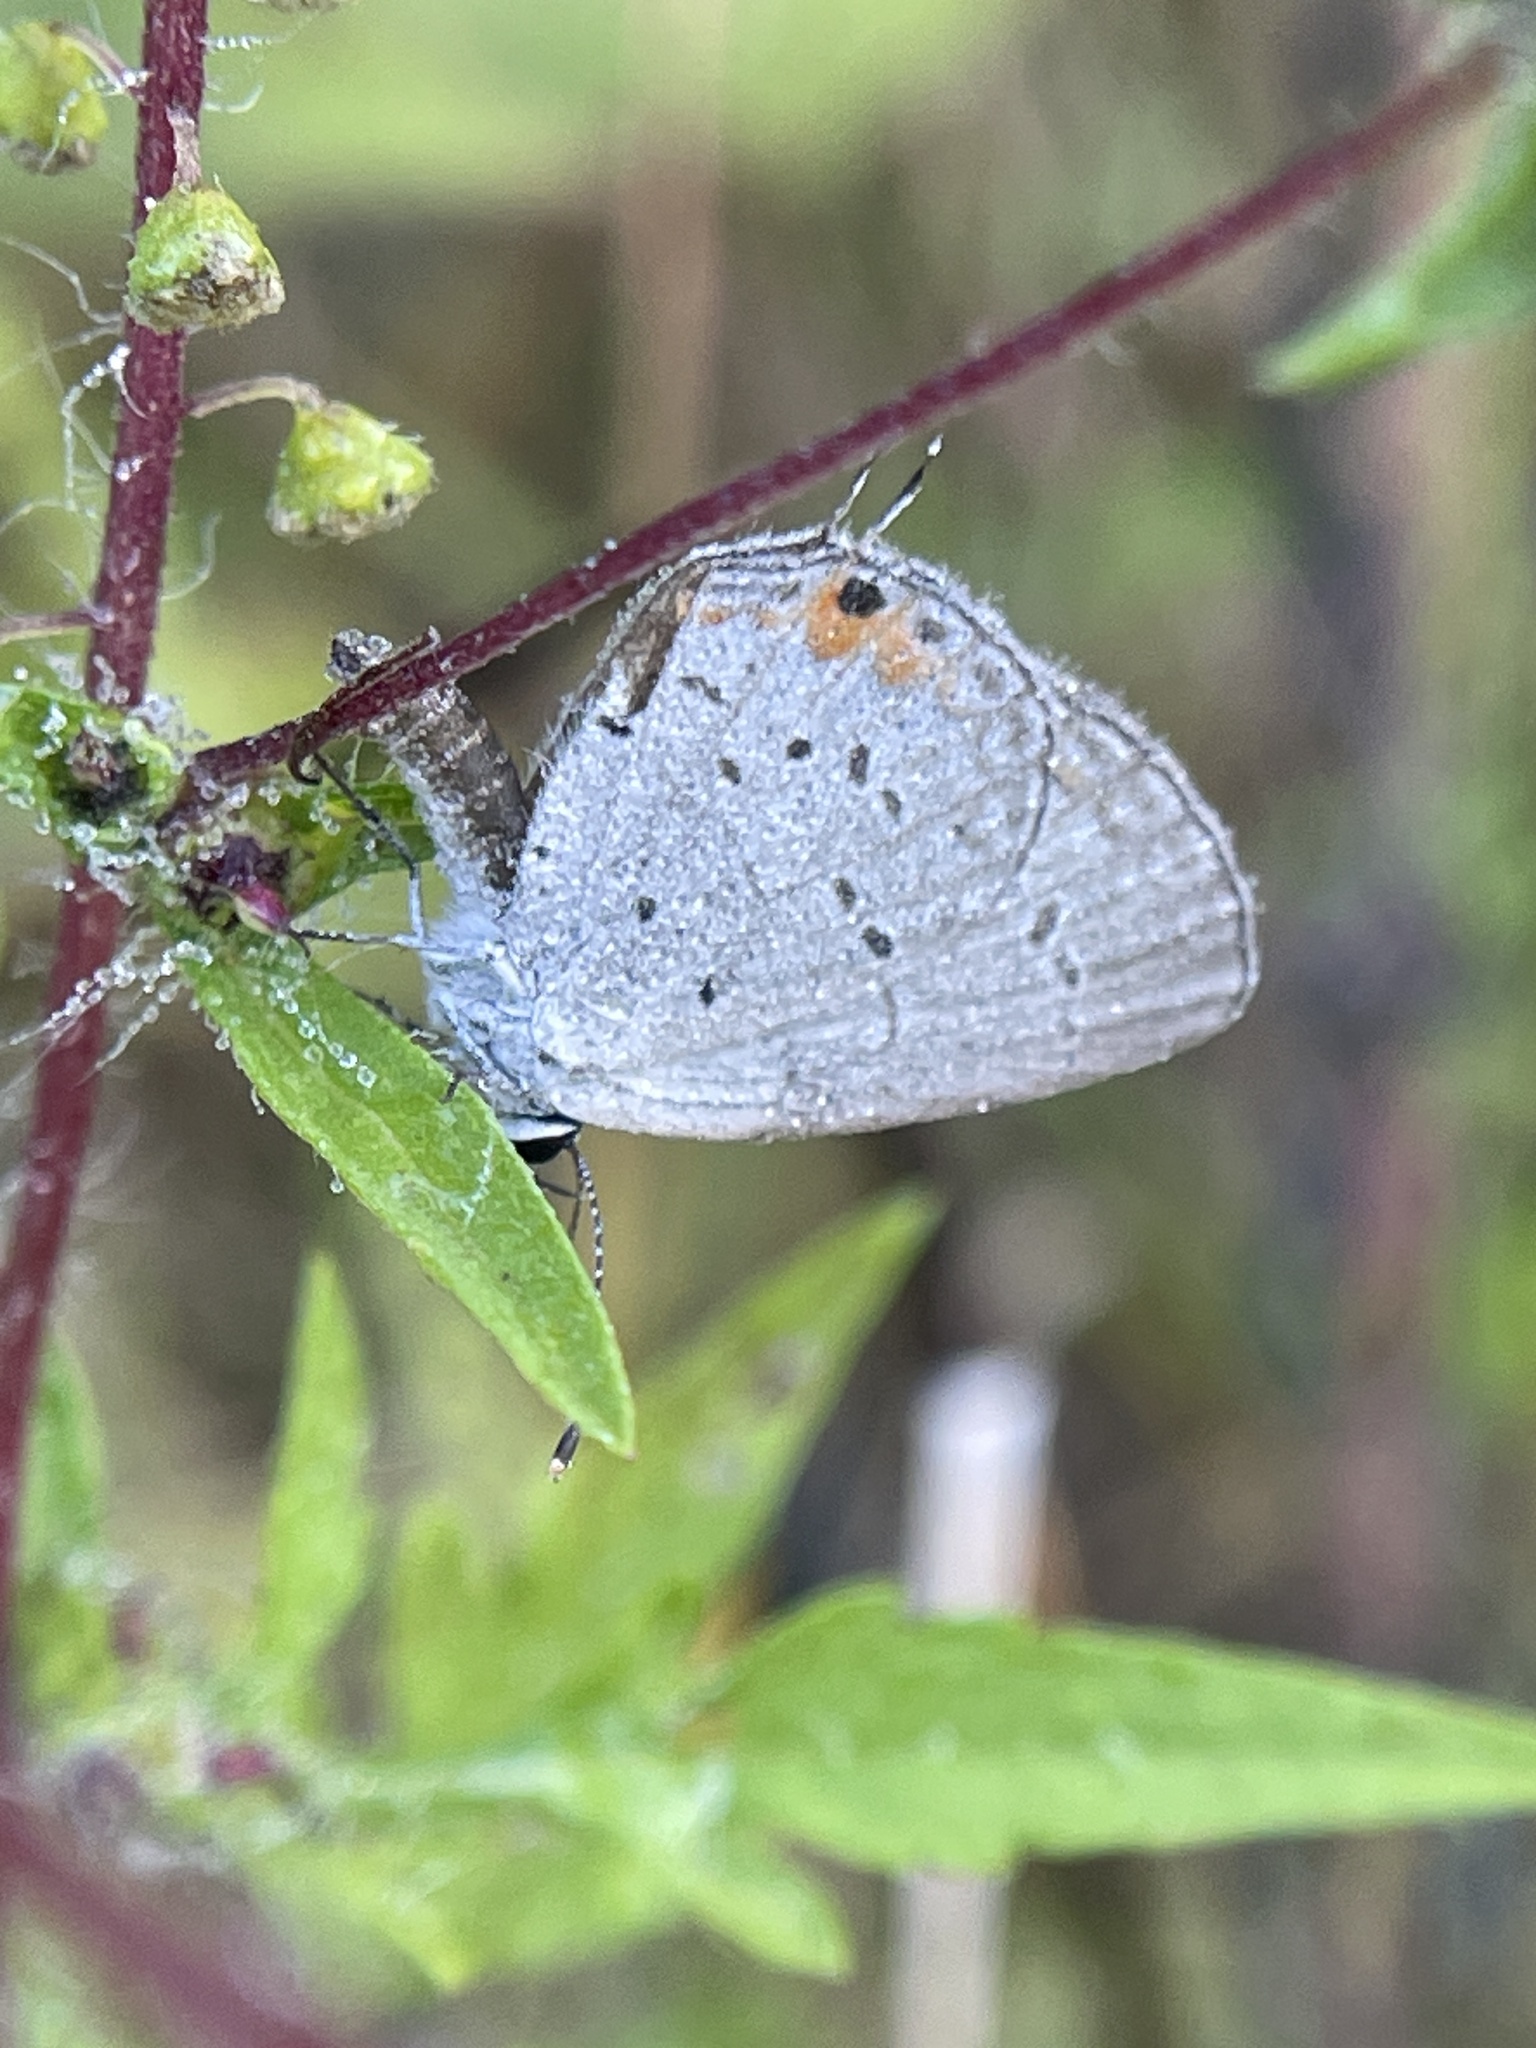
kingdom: Animalia
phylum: Arthropoda
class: Insecta
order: Lepidoptera
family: Lycaenidae
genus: Elkalyce
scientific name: Elkalyce comyntas
